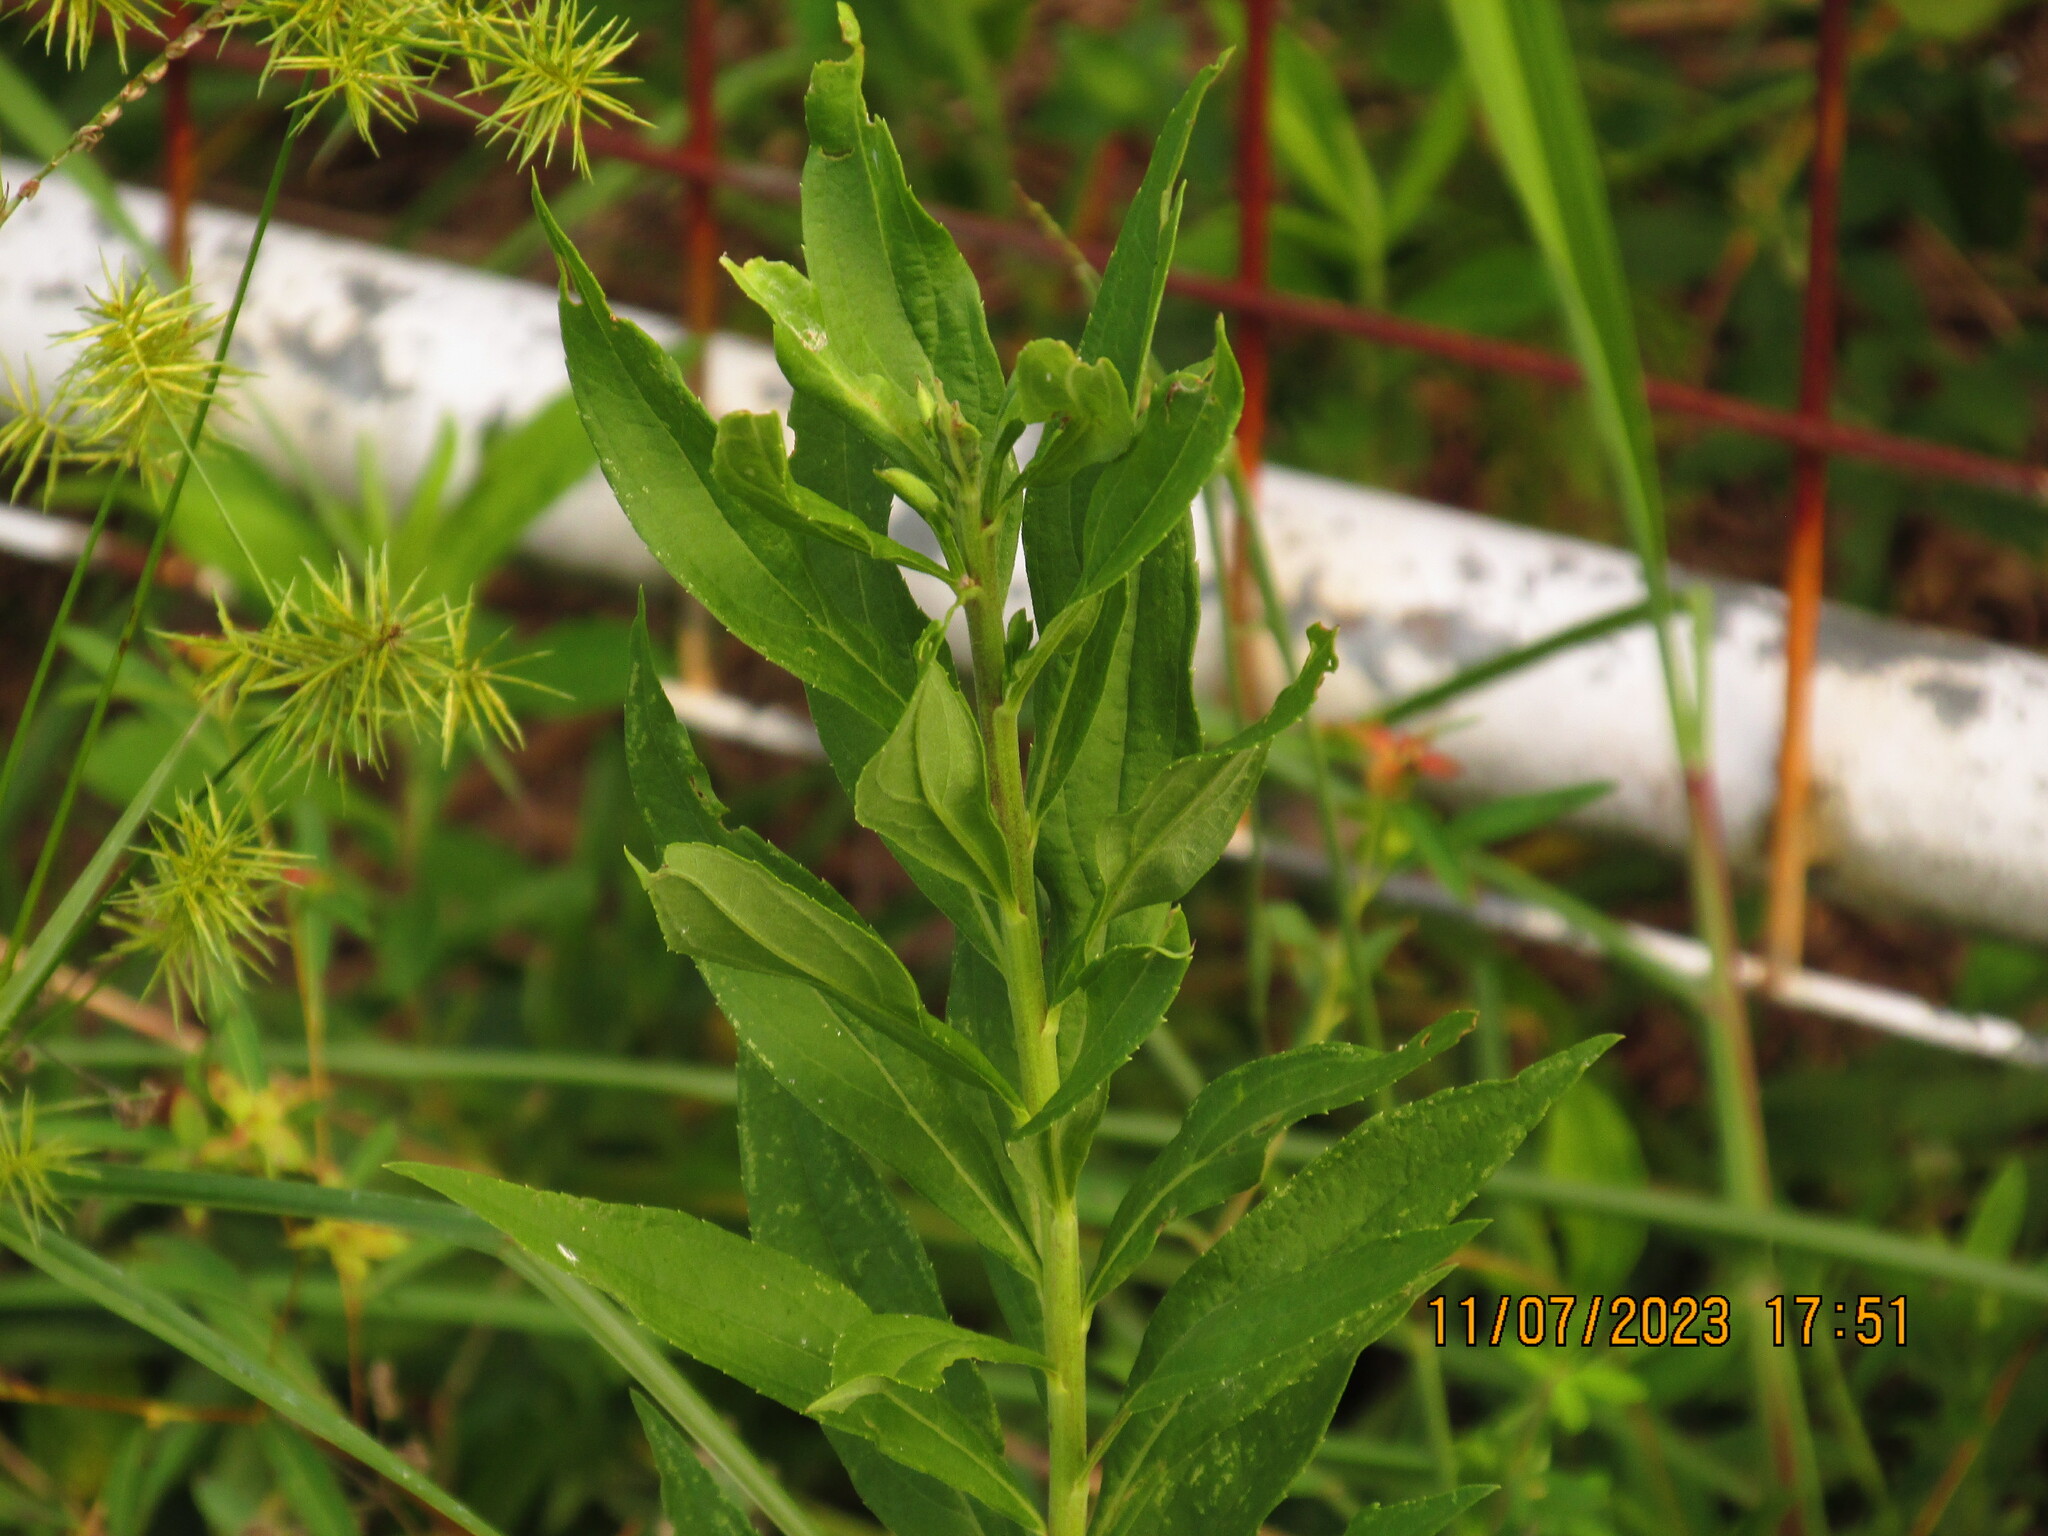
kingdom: Plantae
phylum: Tracheophyta
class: Magnoliopsida
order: Asterales
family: Asteraceae
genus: Solidago
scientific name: Solidago altissima
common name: Late goldenrod
